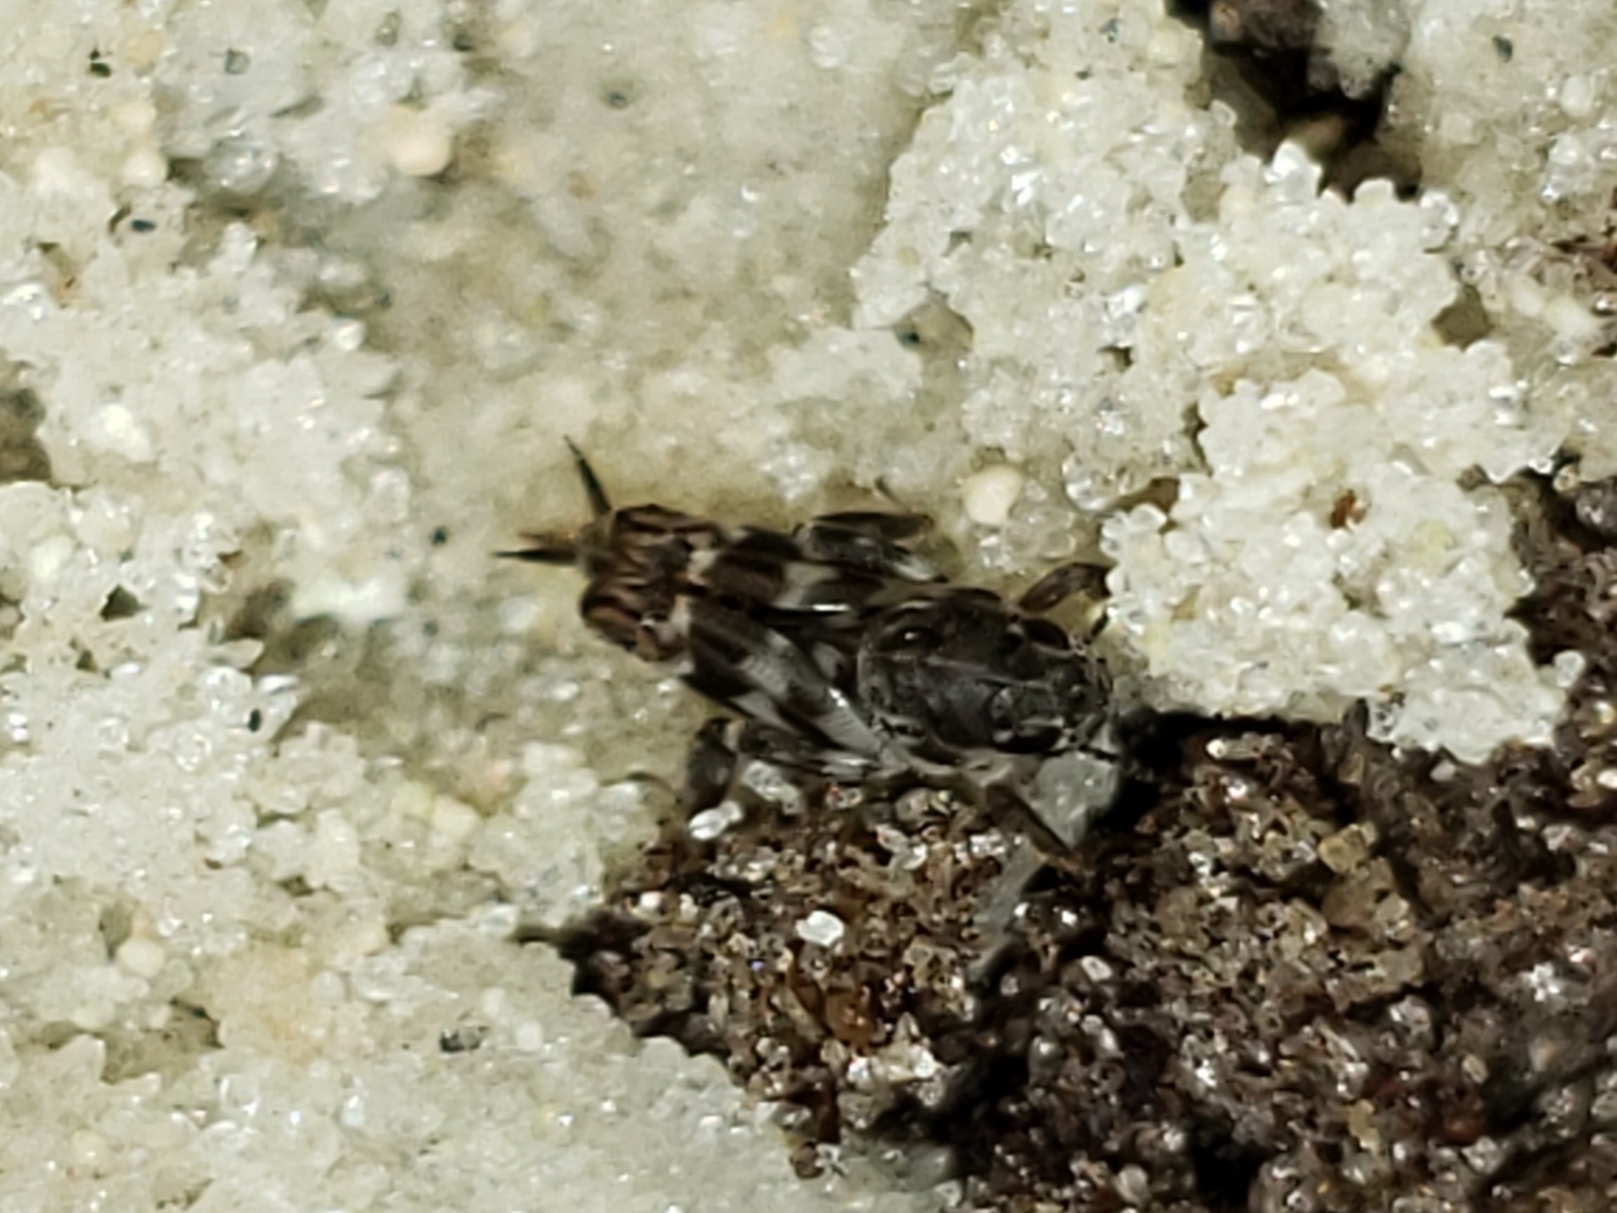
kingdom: Animalia
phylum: Arthropoda
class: Insecta
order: Orthoptera
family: Tridactylidae
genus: Ellipes
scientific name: Ellipes minuta
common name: Minute pygmy locust
